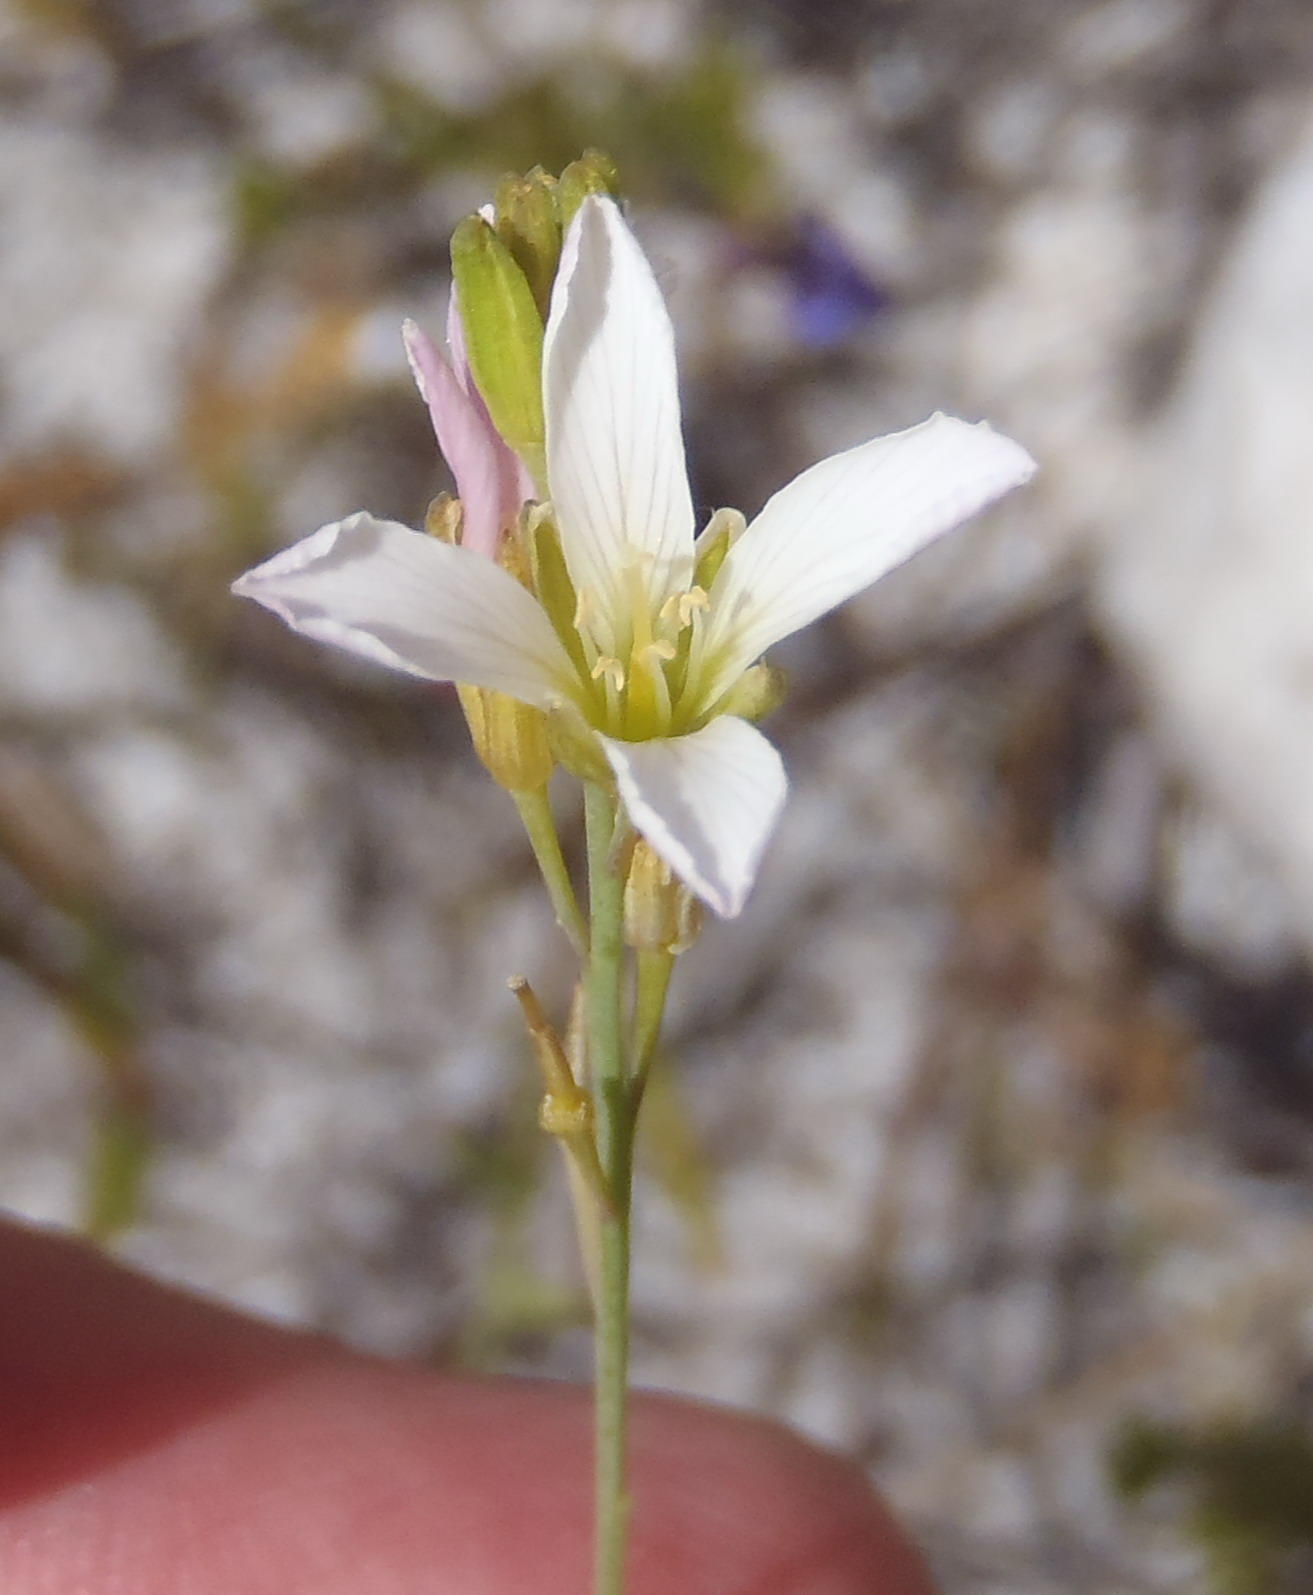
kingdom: Plantae
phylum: Tracheophyta
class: Magnoliopsida
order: Brassicales
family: Brassicaceae
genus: Heliophila
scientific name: Heliophila macra
